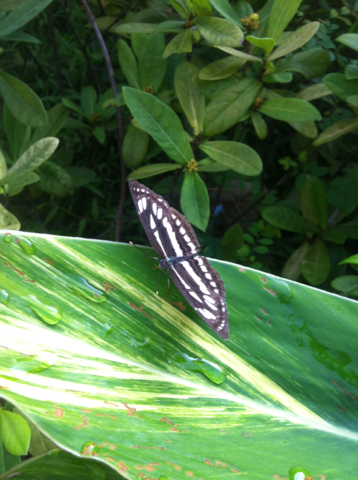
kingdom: Animalia
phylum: Arthropoda
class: Insecta
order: Lepidoptera
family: Nymphalidae
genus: Neptis
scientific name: Neptis hylas
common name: Common sailer
